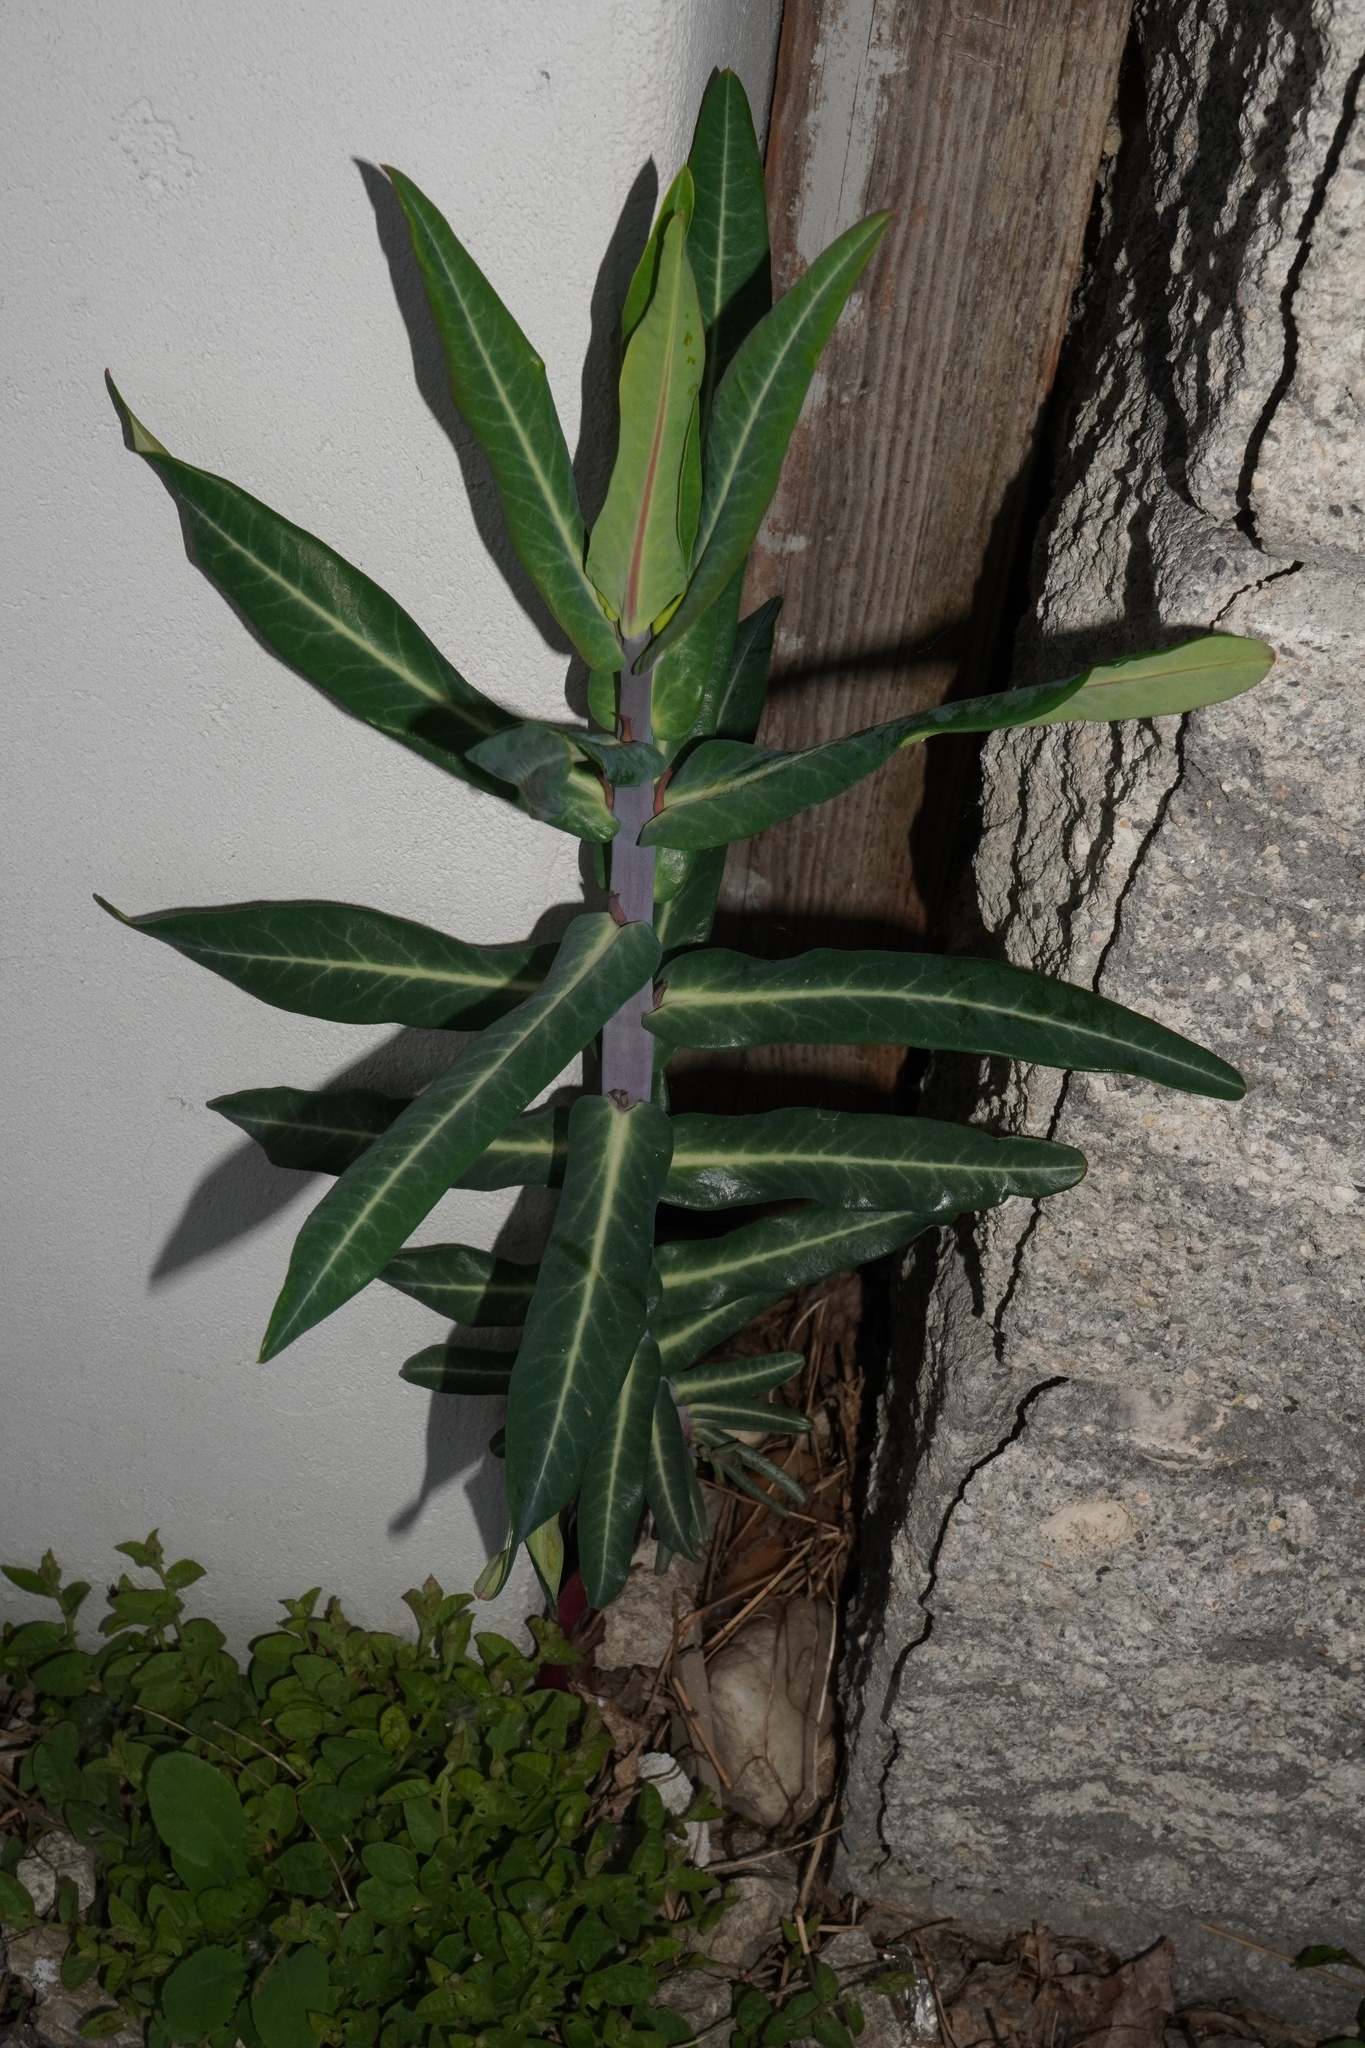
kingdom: Plantae
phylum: Tracheophyta
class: Magnoliopsida
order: Malpighiales
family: Euphorbiaceae
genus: Euphorbia
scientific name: Euphorbia lathyris
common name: Caper spurge
